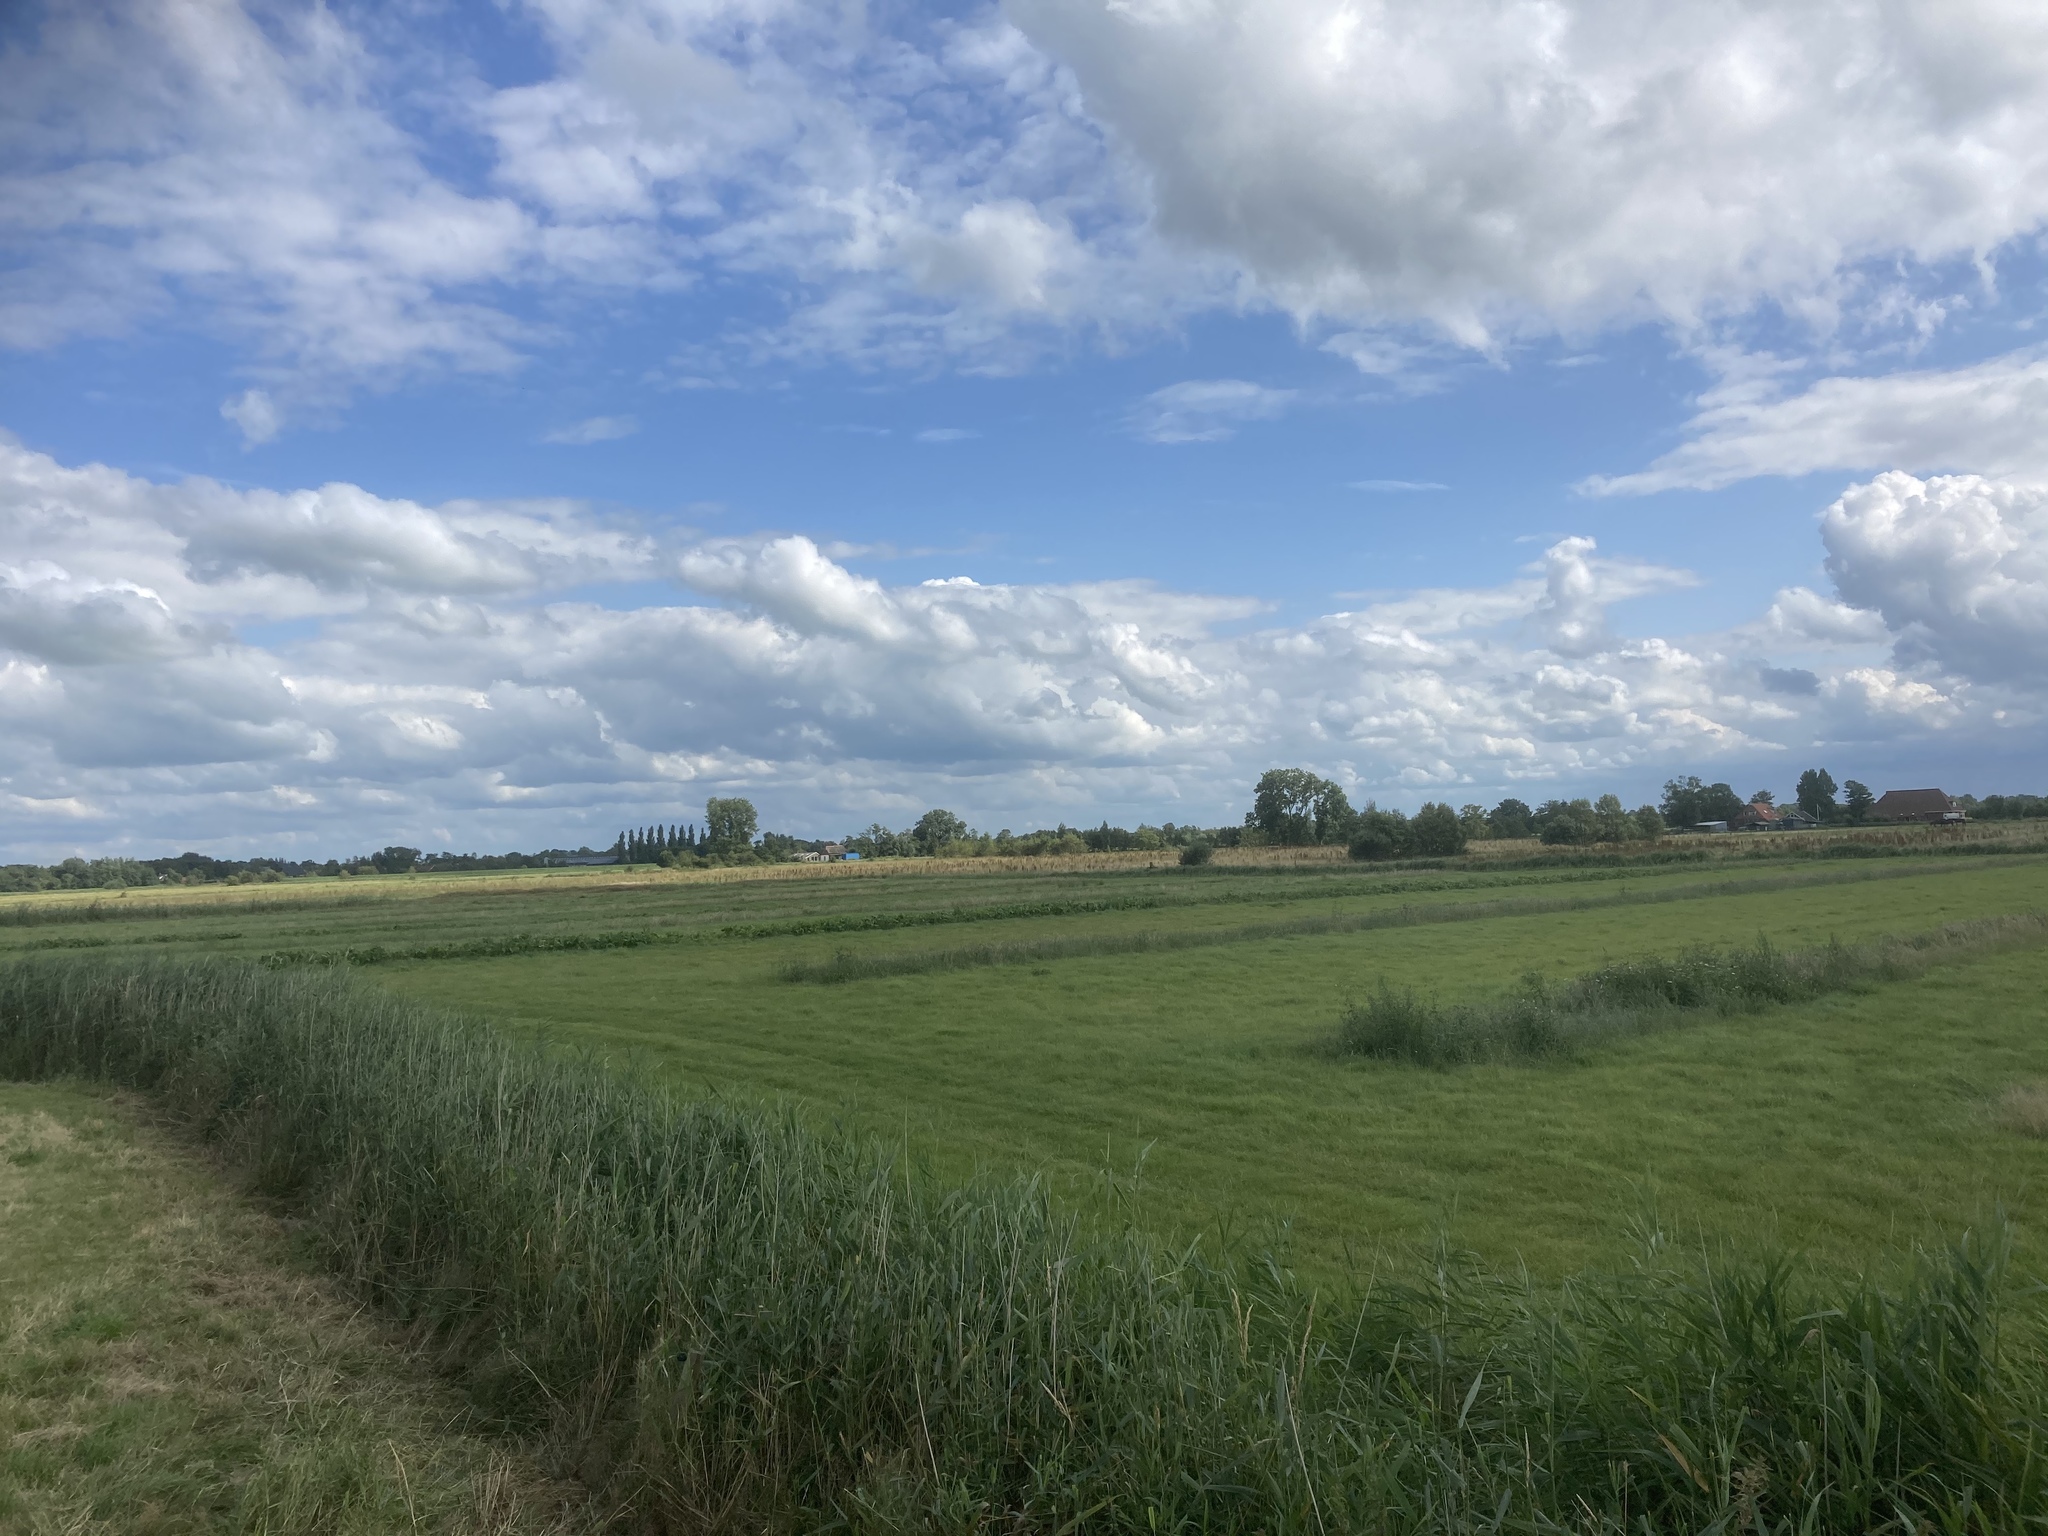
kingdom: Plantae
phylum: Tracheophyta
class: Liliopsida
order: Poales
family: Poaceae
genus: Phragmites
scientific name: Phragmites australis
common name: Common reed
